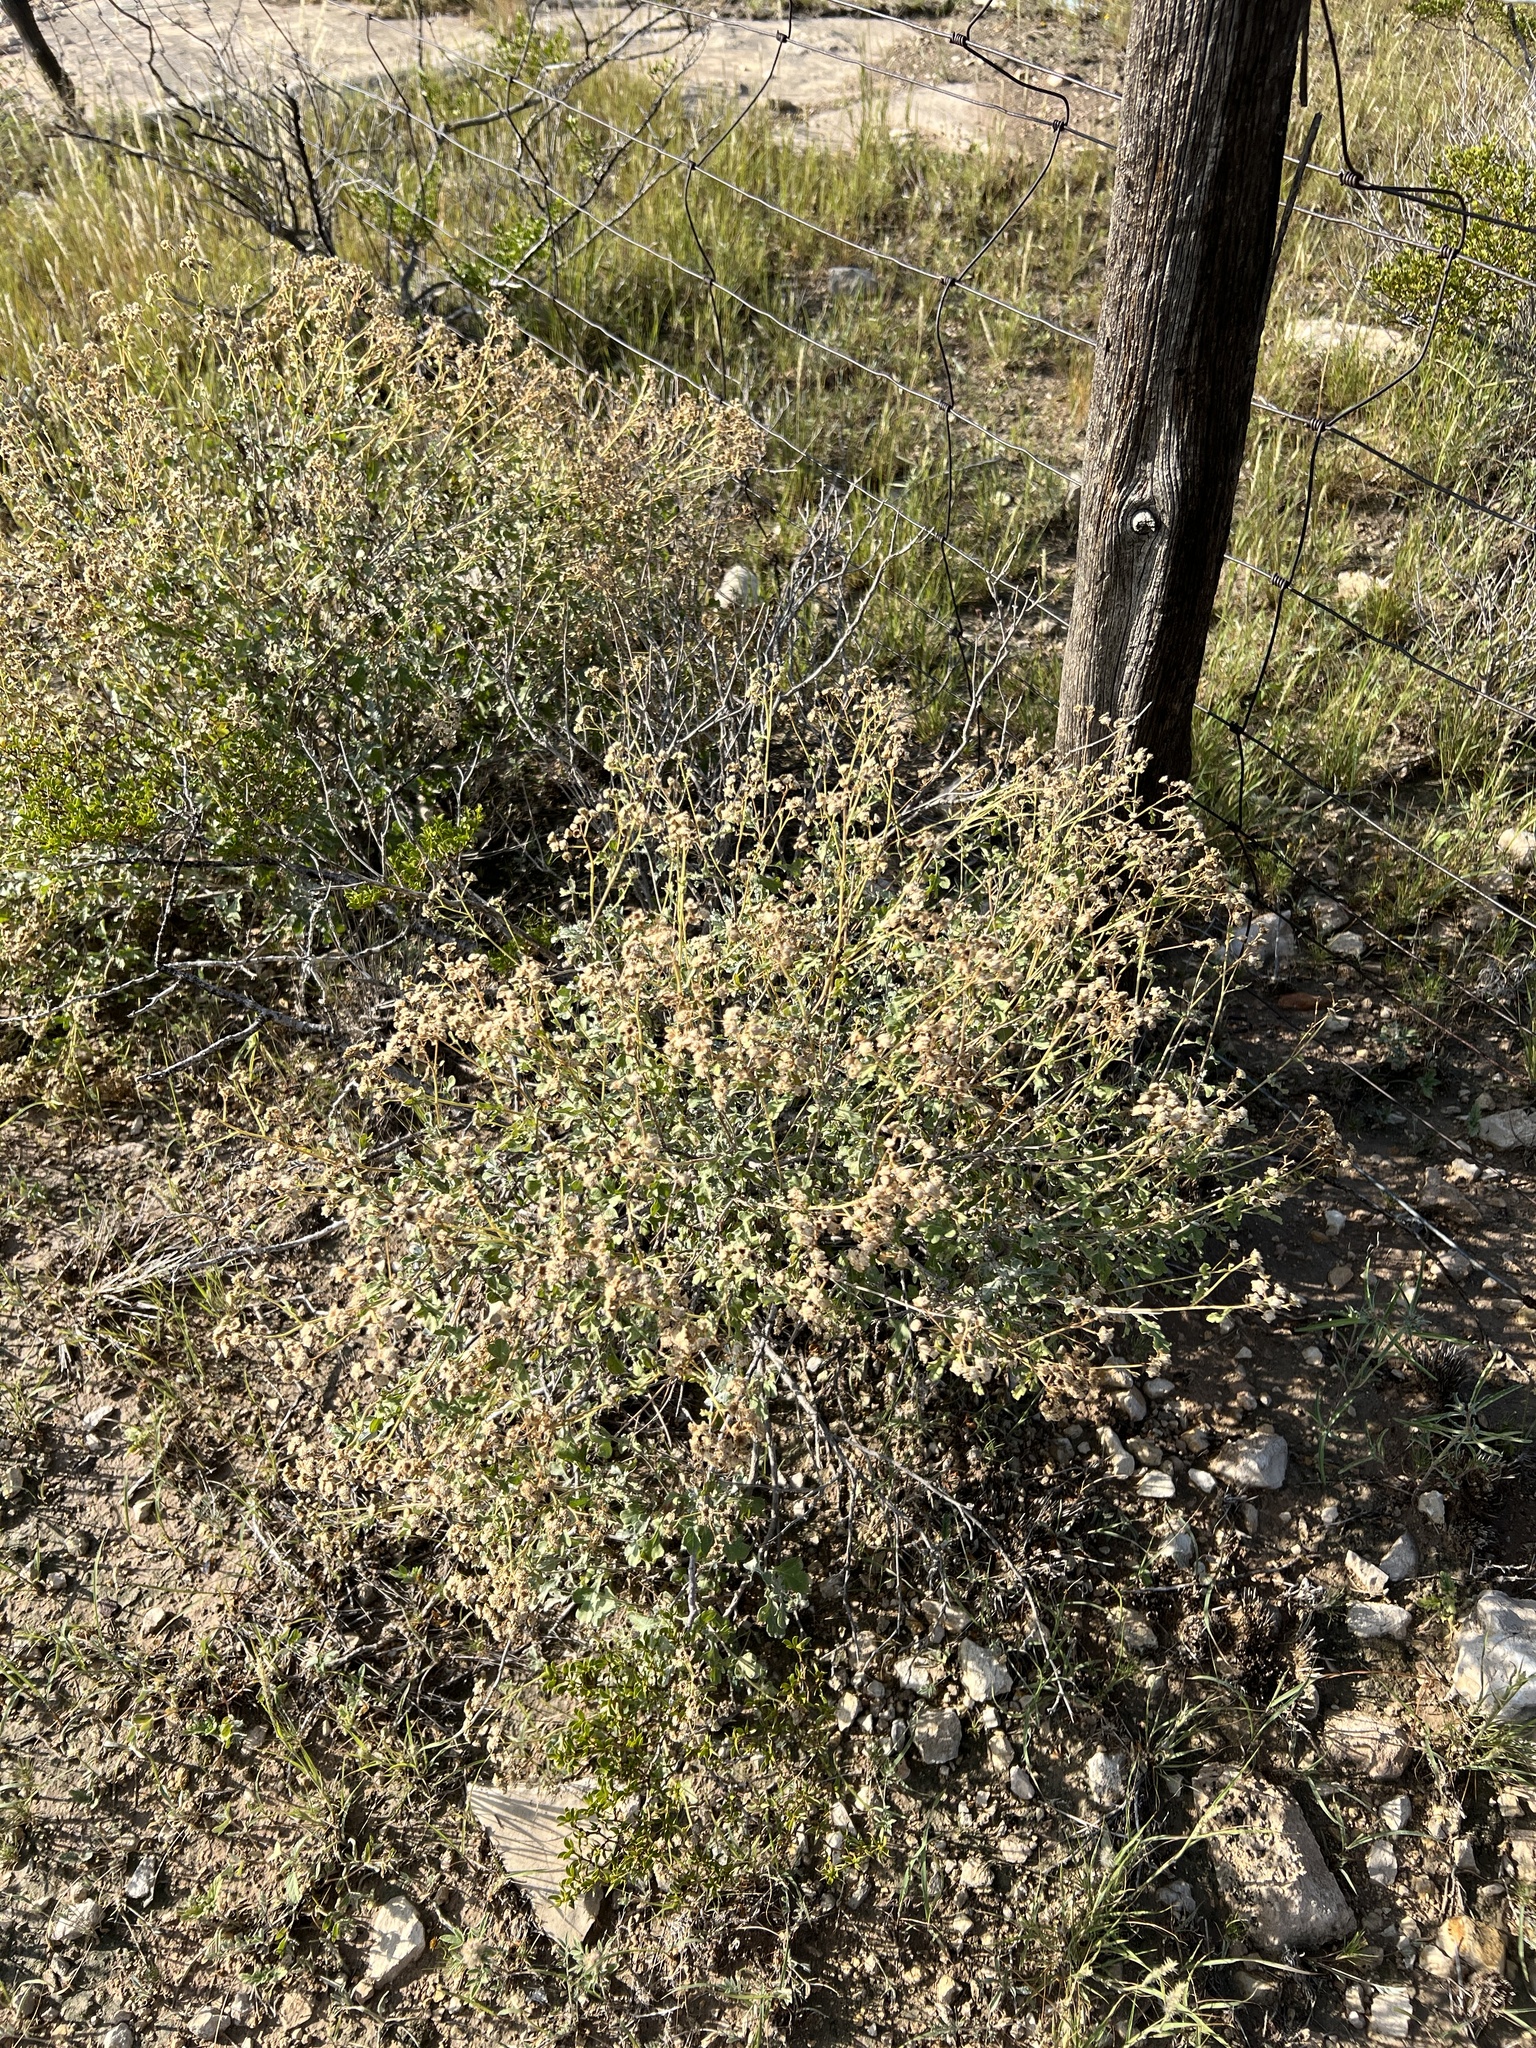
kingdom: Plantae
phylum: Tracheophyta
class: Magnoliopsida
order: Asterales
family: Asteraceae
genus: Parthenium
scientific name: Parthenium incanum
